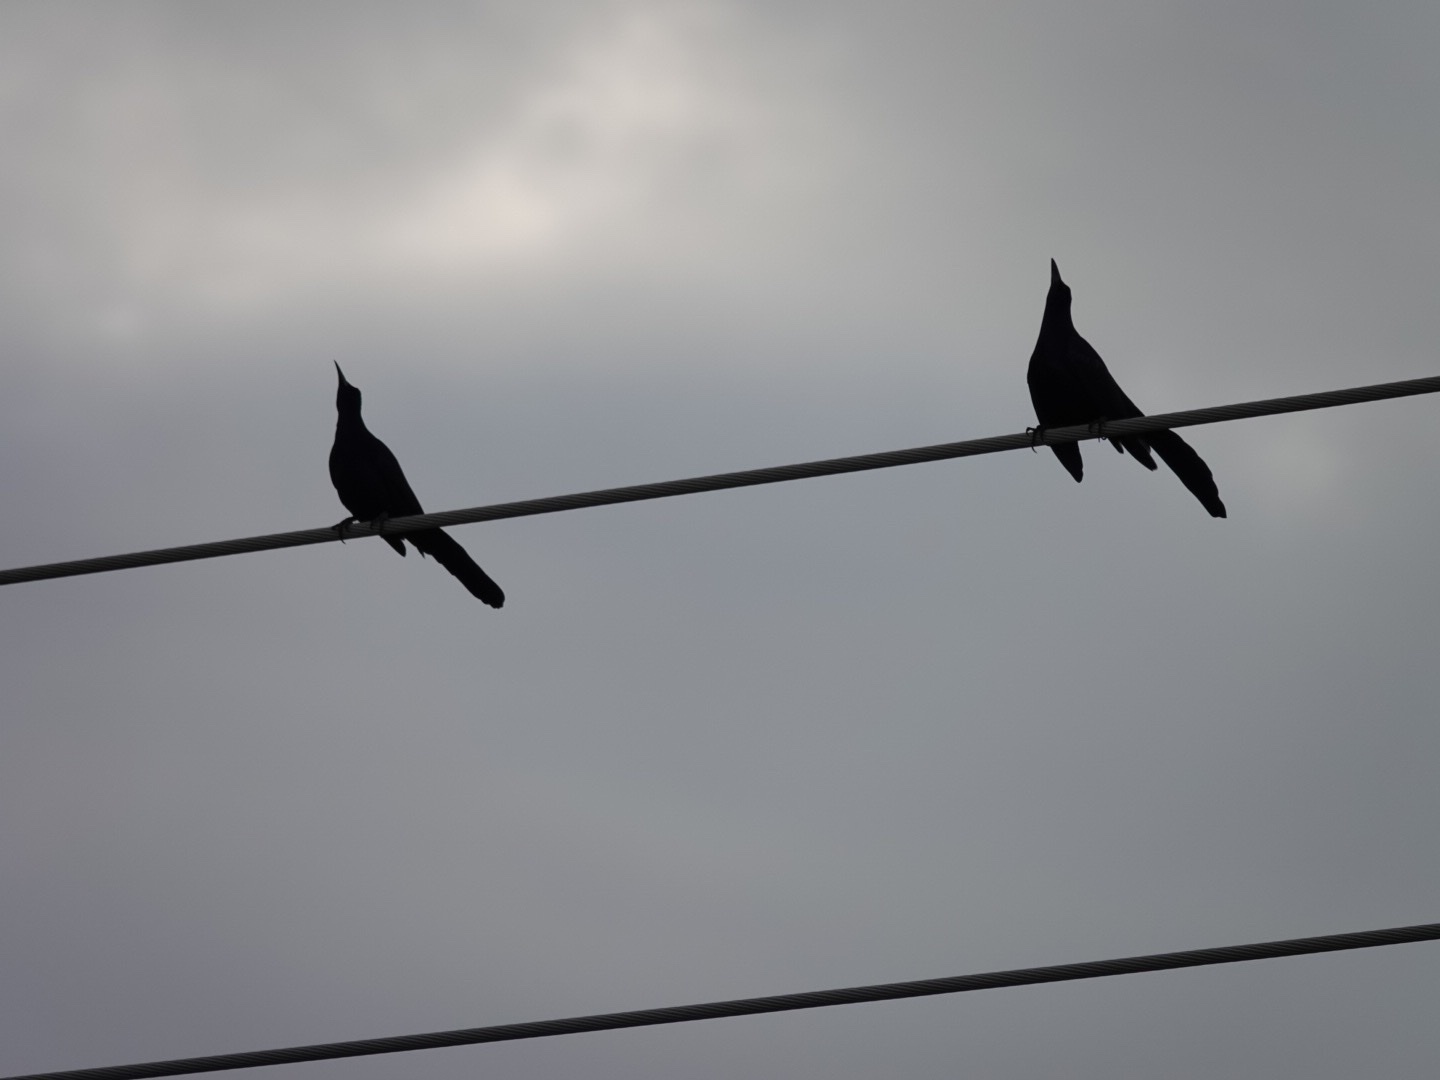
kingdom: Animalia
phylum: Chordata
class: Aves
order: Passeriformes
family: Icteridae
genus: Quiscalus
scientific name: Quiscalus mexicanus
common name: Great-tailed grackle
